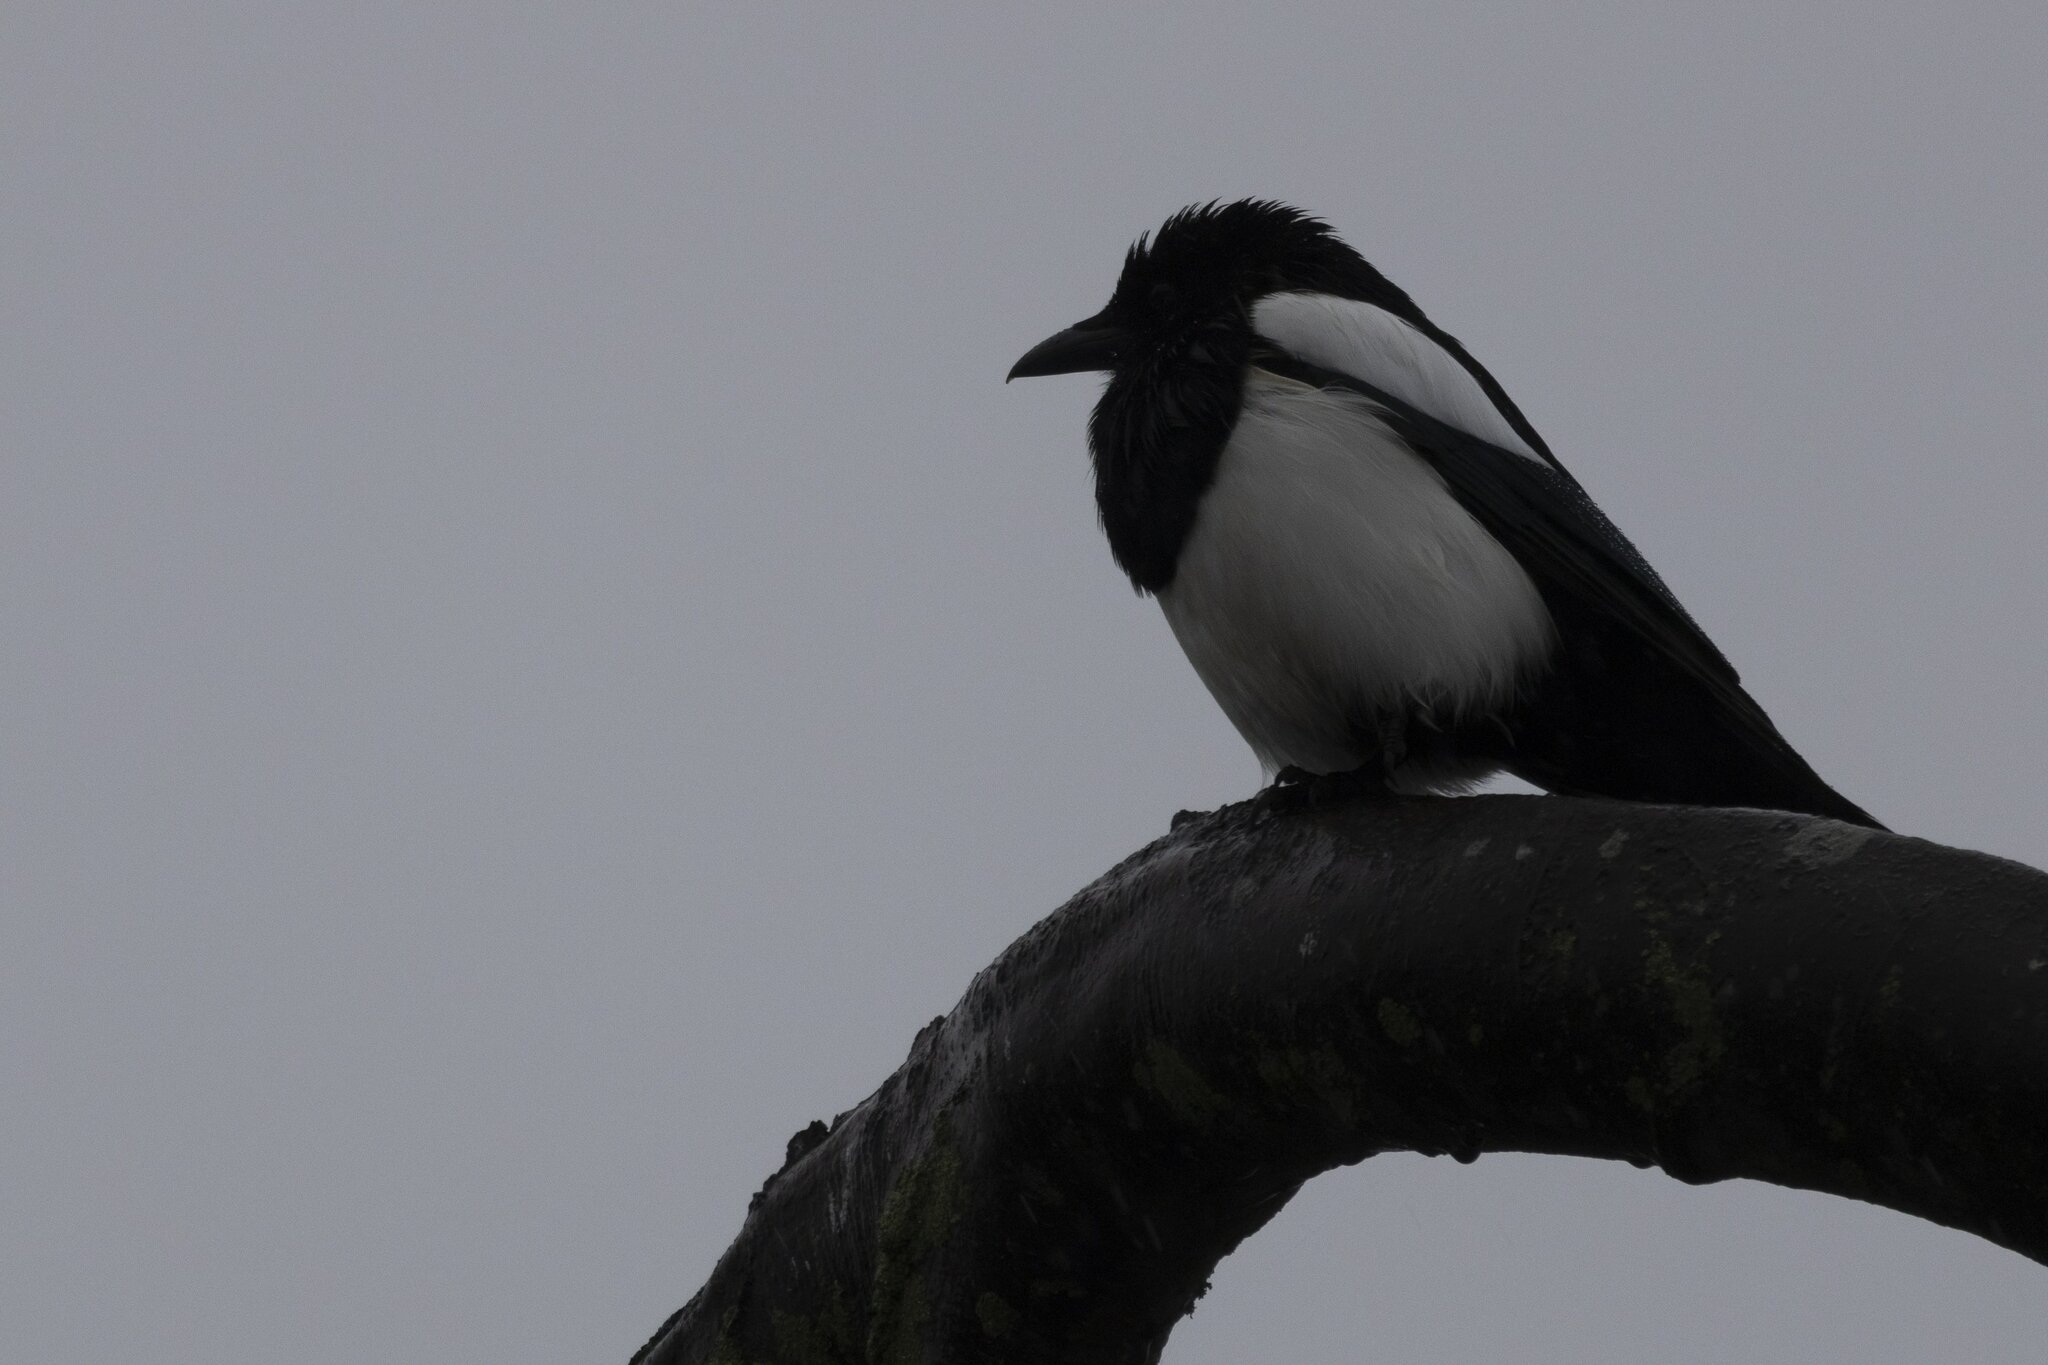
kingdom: Animalia
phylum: Chordata
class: Aves
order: Passeriformes
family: Corvidae
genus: Pica
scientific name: Pica pica
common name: Eurasian magpie
